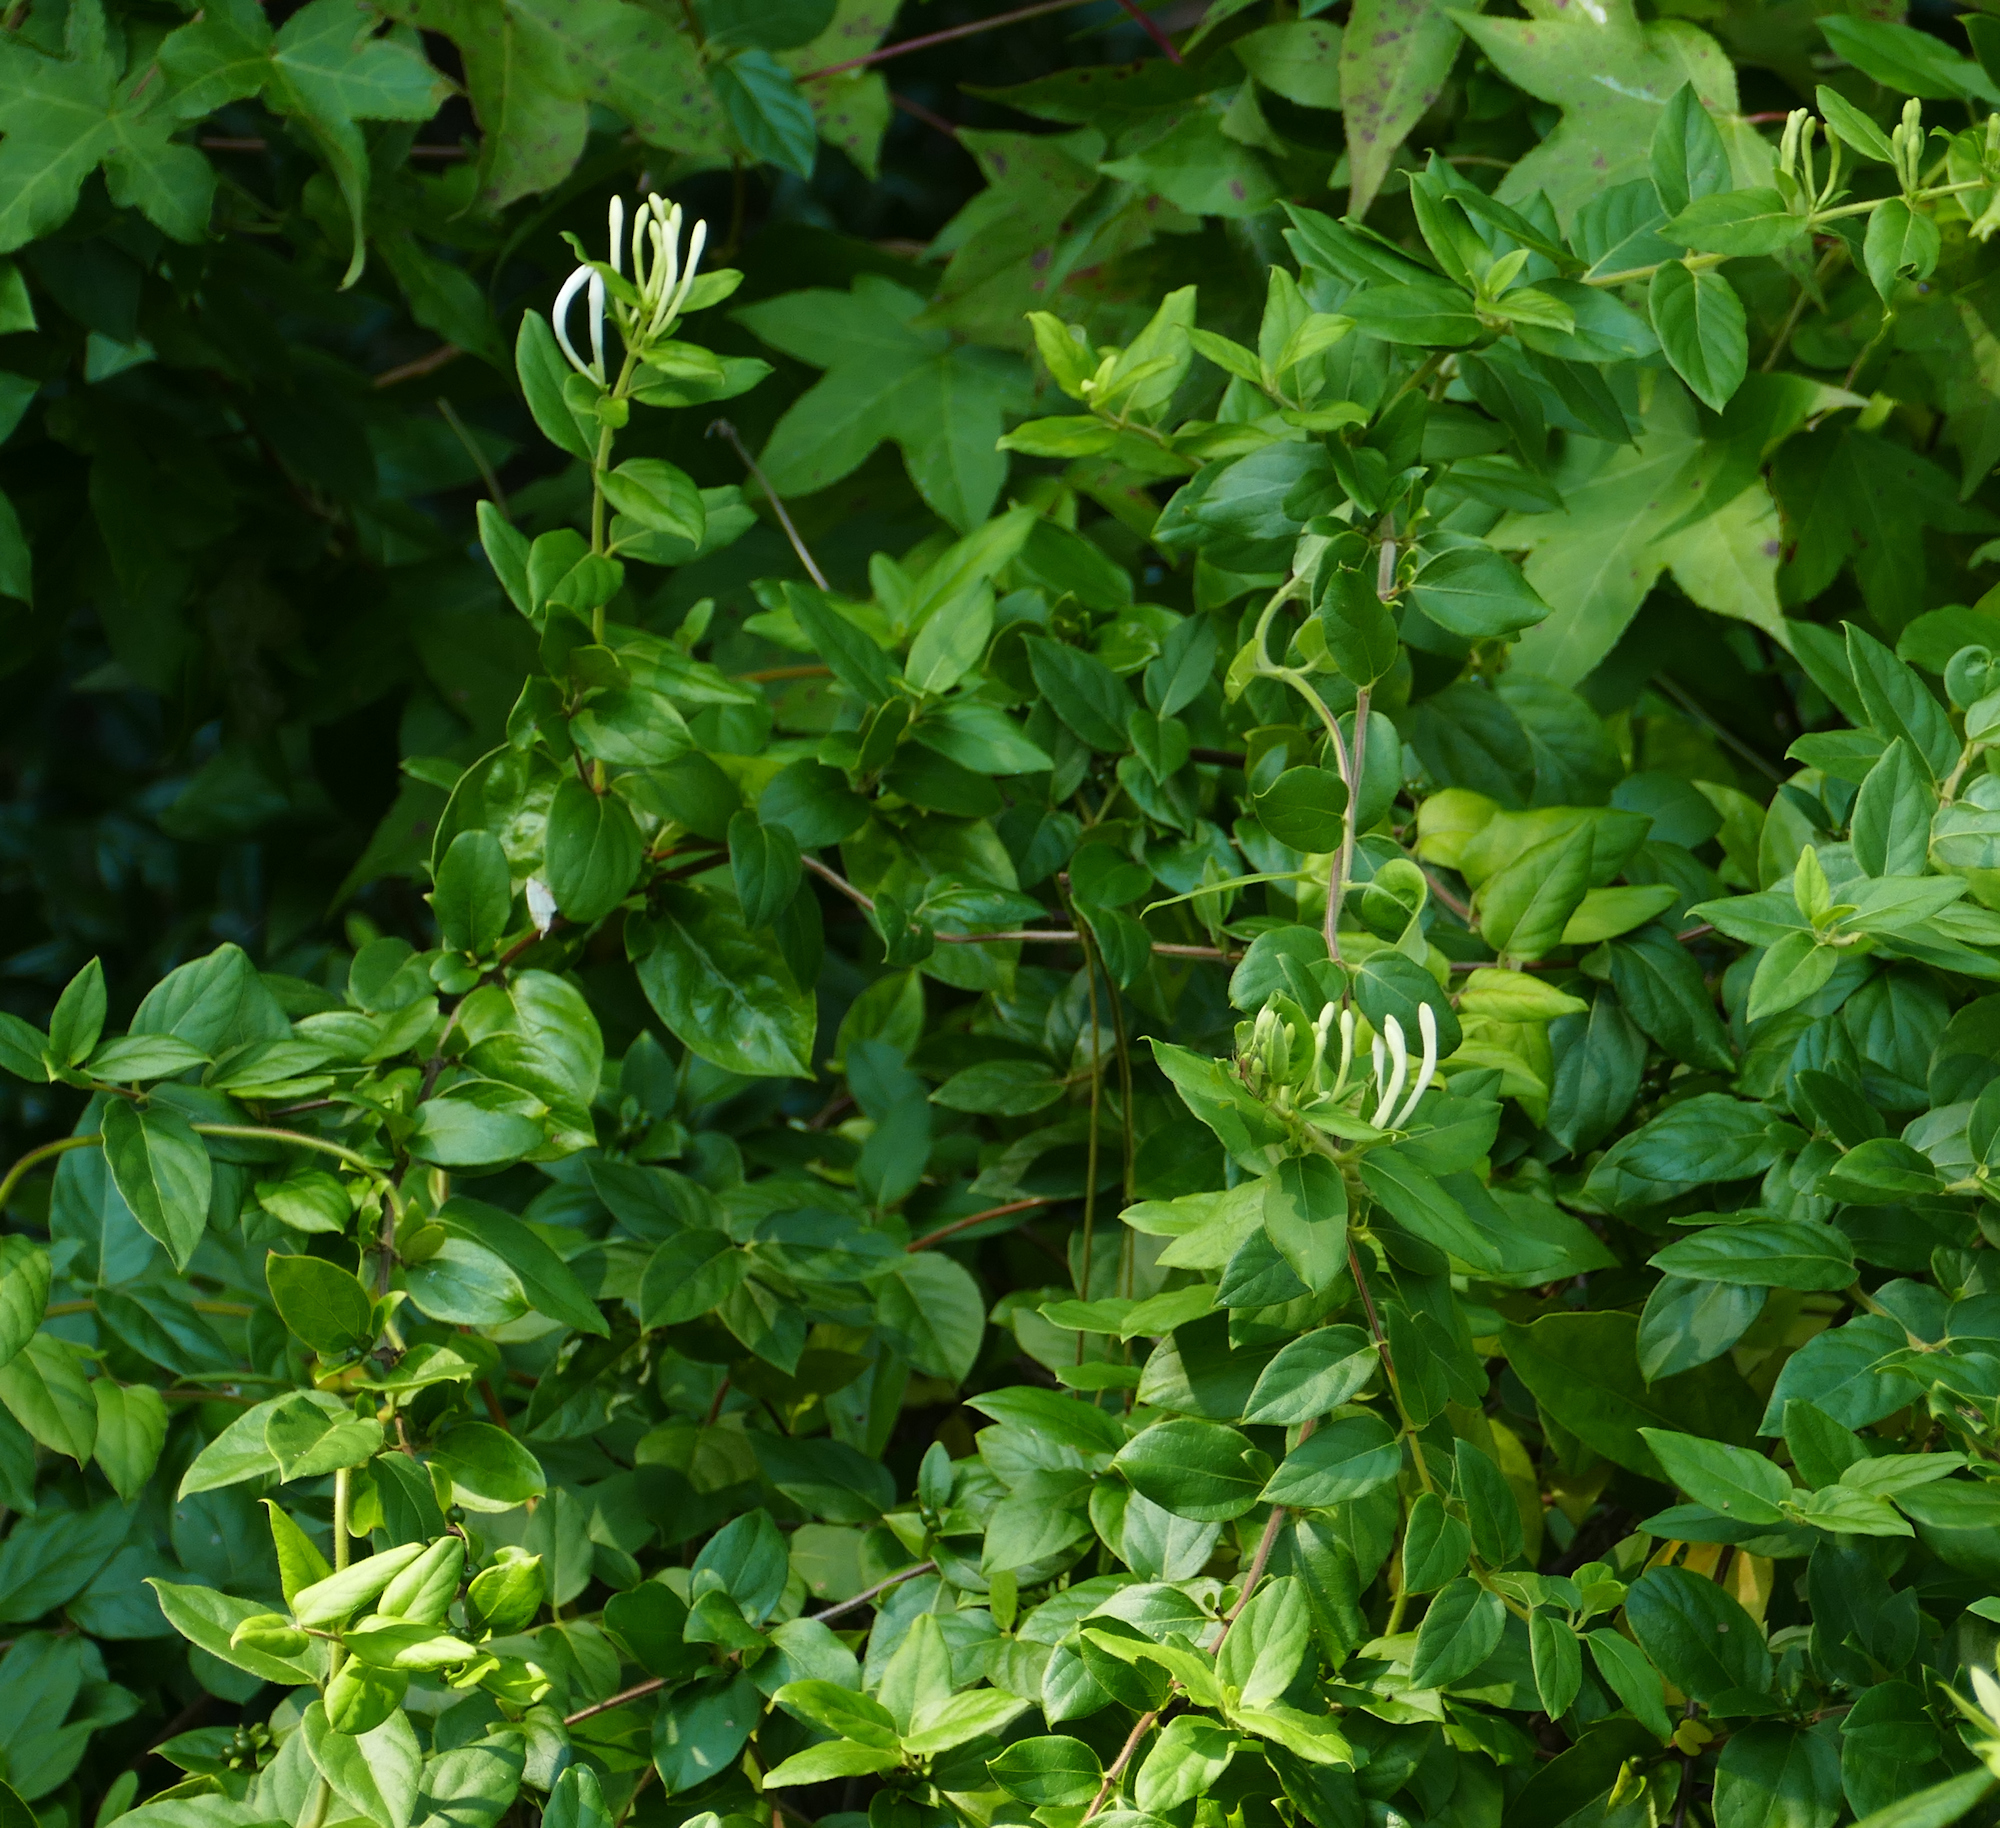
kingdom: Plantae
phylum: Tracheophyta
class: Magnoliopsida
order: Dipsacales
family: Caprifoliaceae
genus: Lonicera
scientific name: Lonicera japonica
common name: Japanese honeysuckle
